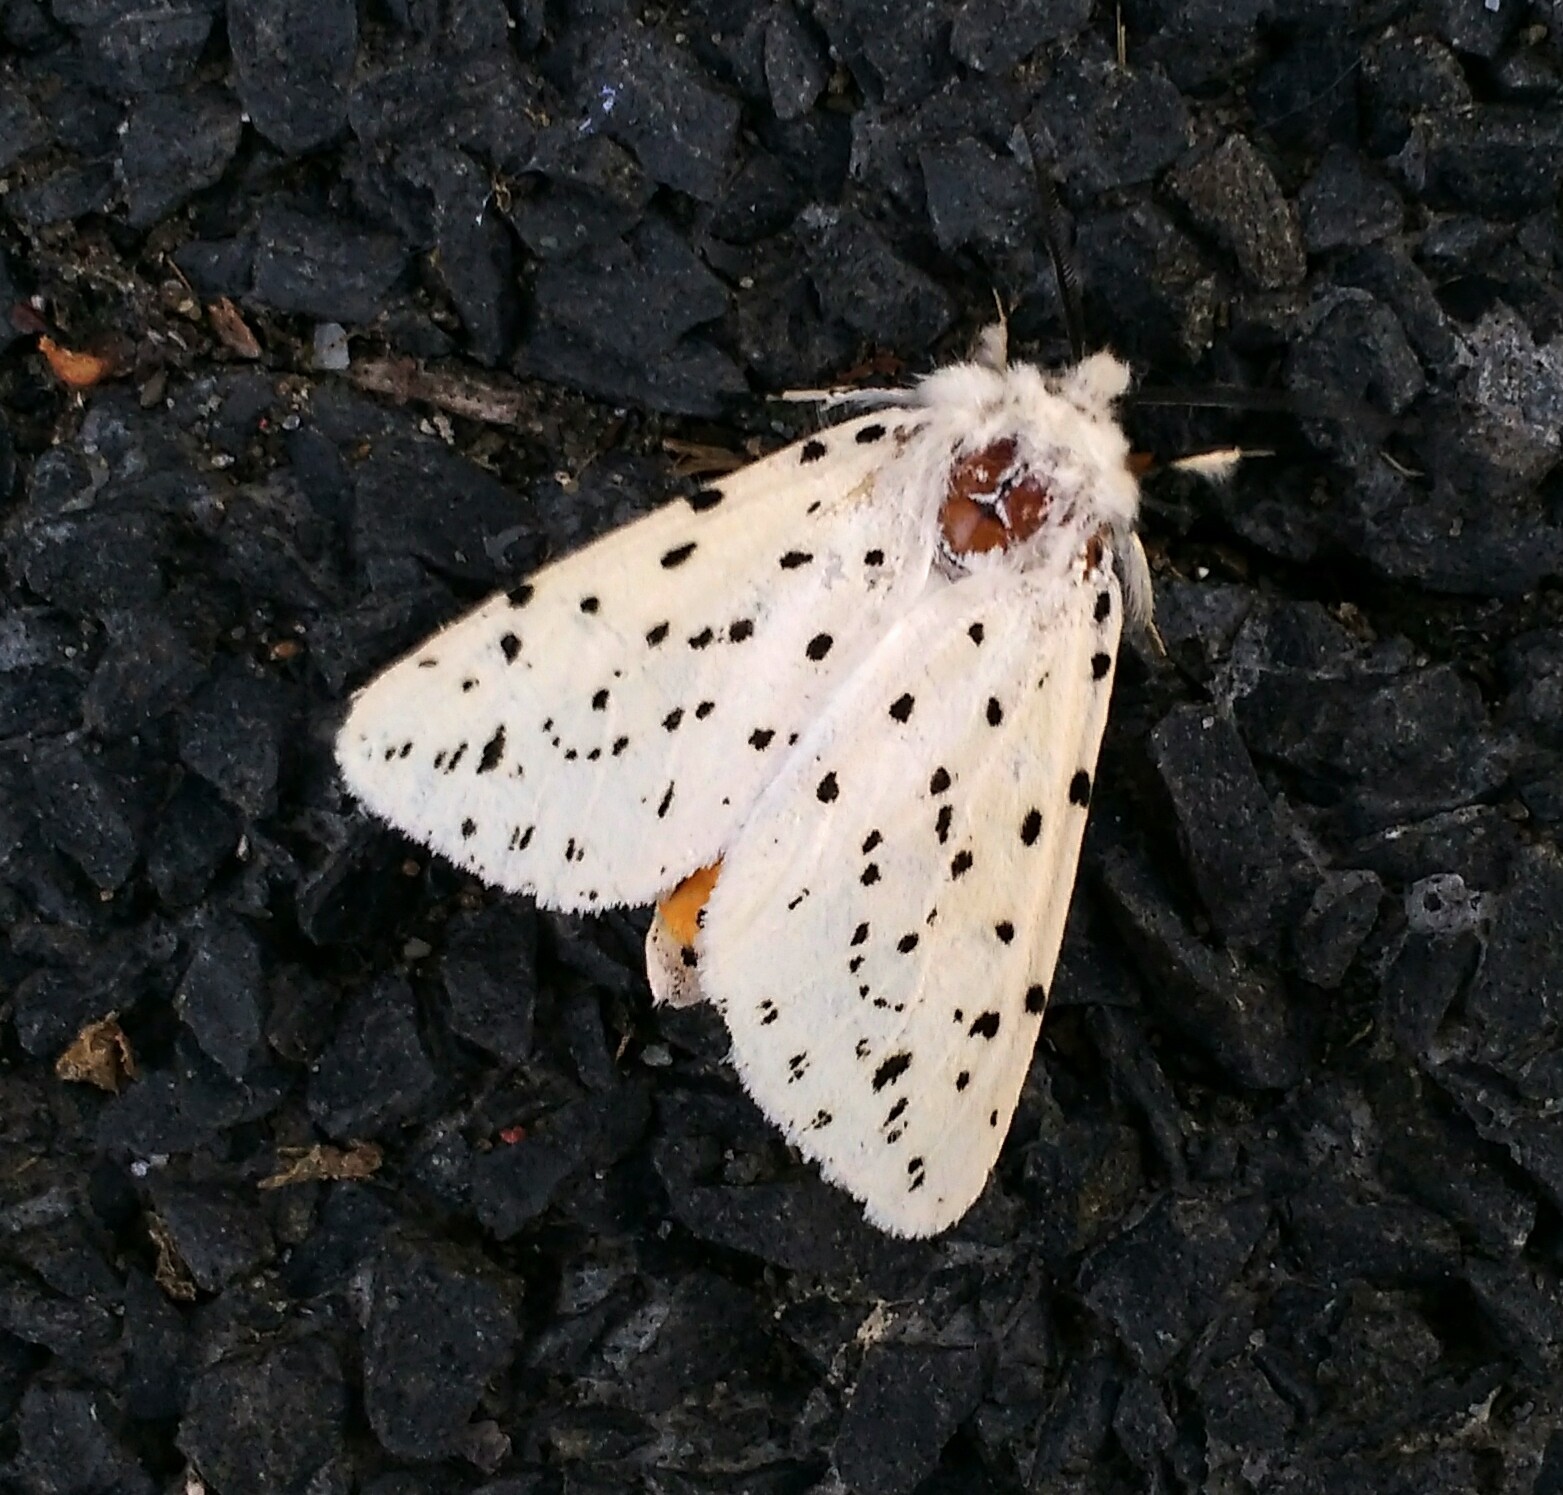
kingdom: Animalia
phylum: Arthropoda
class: Insecta
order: Lepidoptera
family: Erebidae
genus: Spilosoma
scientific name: Spilosoma lubricipeda
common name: White ermine
